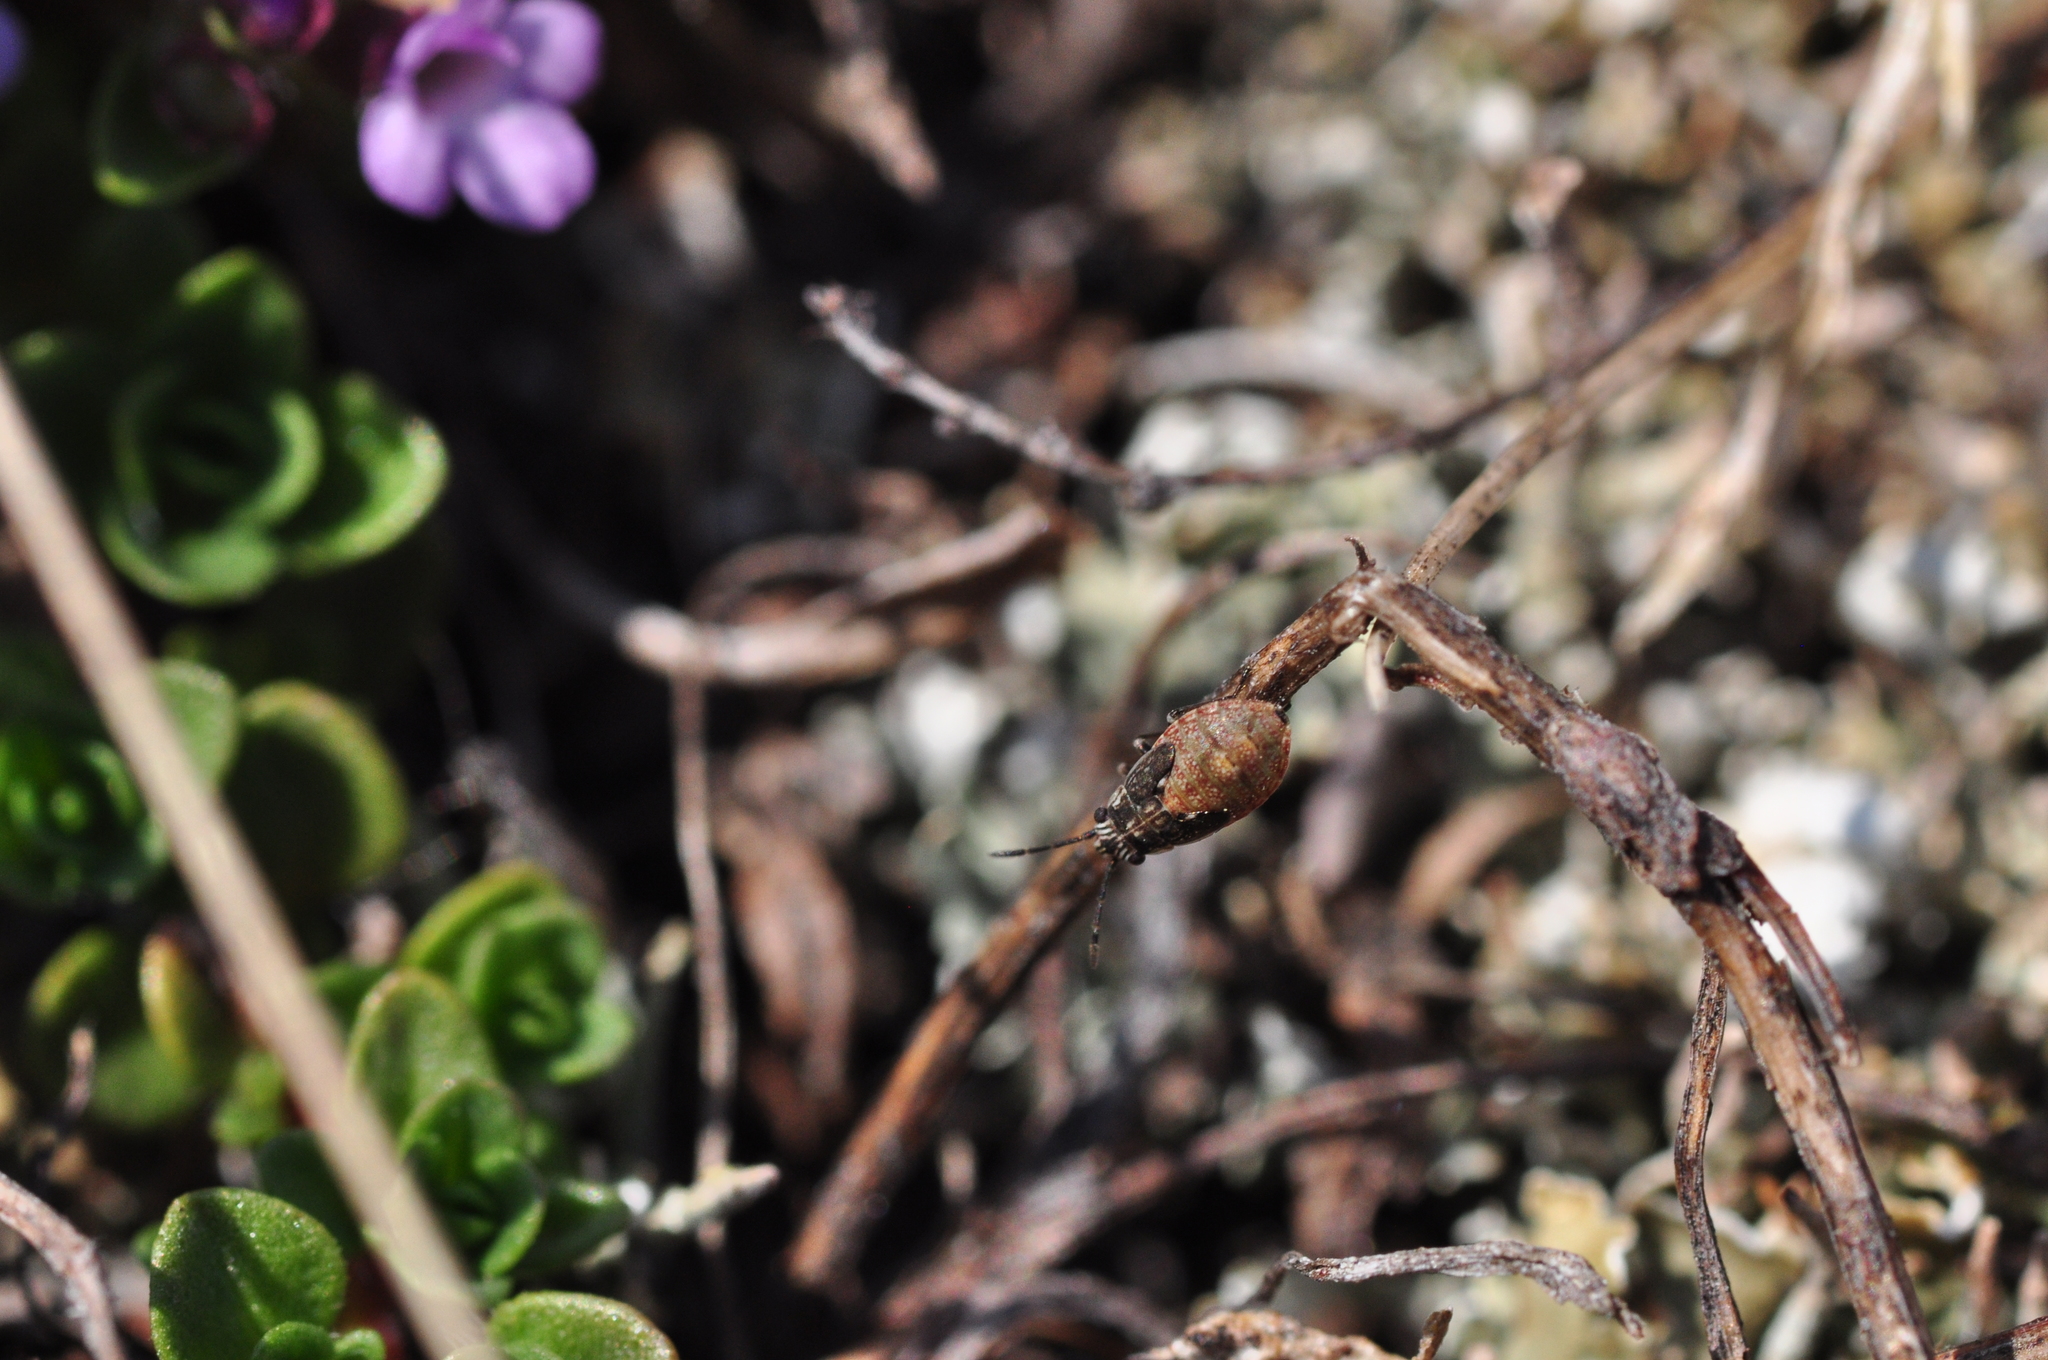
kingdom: Animalia
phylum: Arthropoda
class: Insecta
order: Hemiptera
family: Lygaeidae
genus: Nysius
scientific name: Nysius groenlandicus
